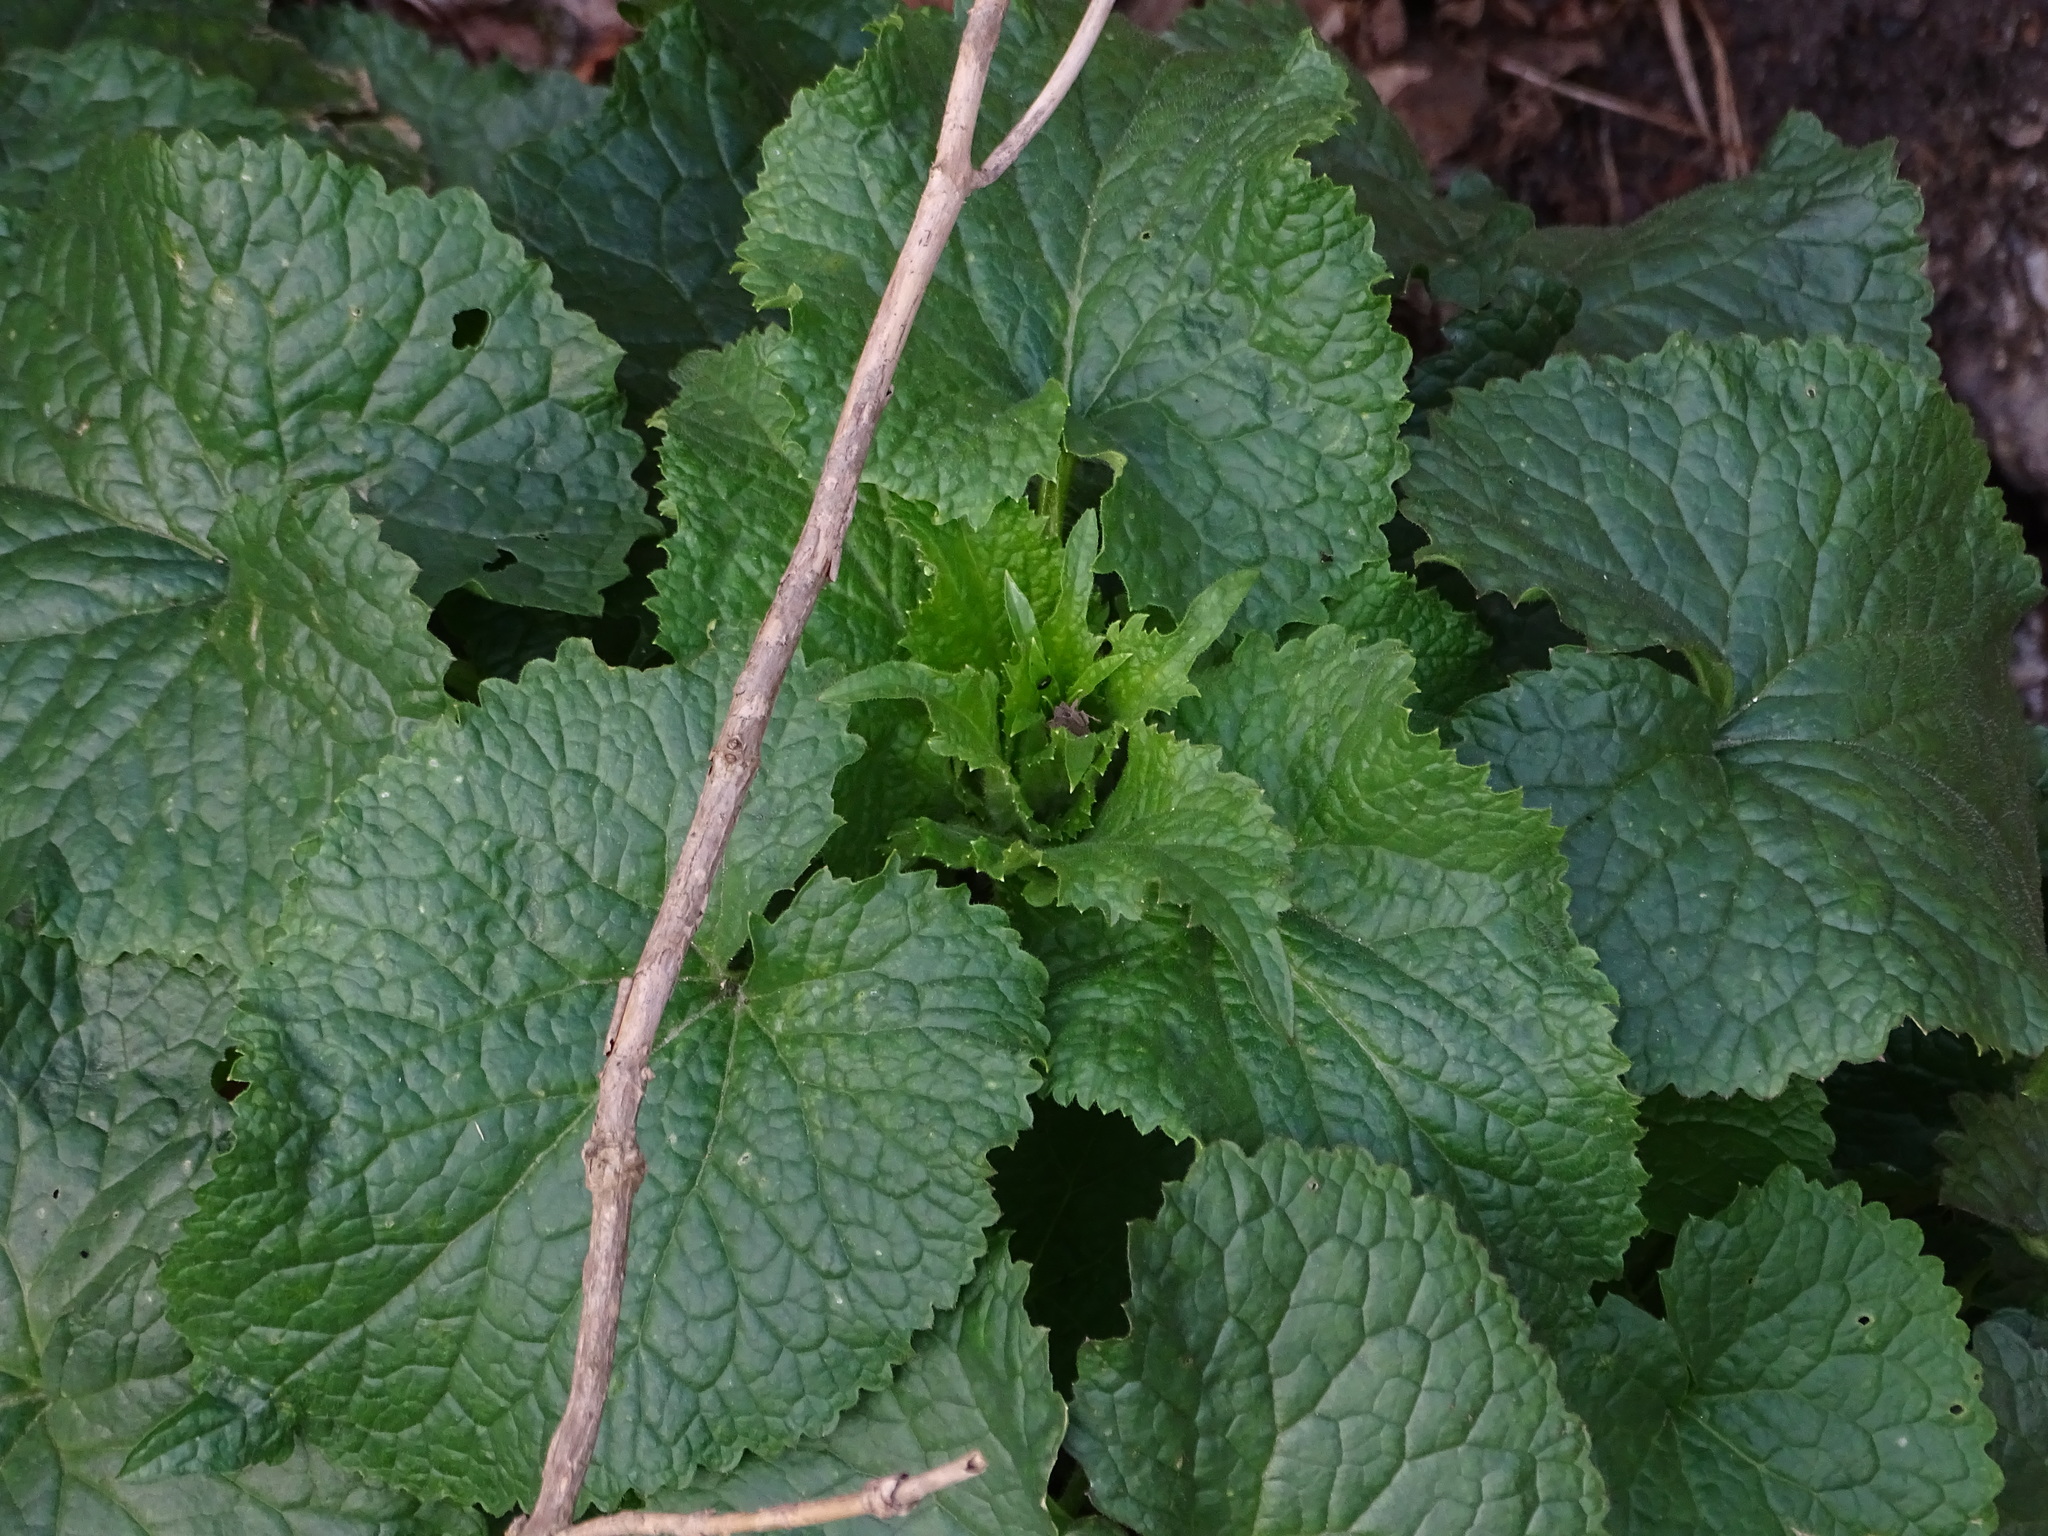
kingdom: Plantae
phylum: Tracheophyta
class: Magnoliopsida
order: Brassicales
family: Brassicaceae
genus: Lunaria
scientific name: Lunaria annua
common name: Honesty
